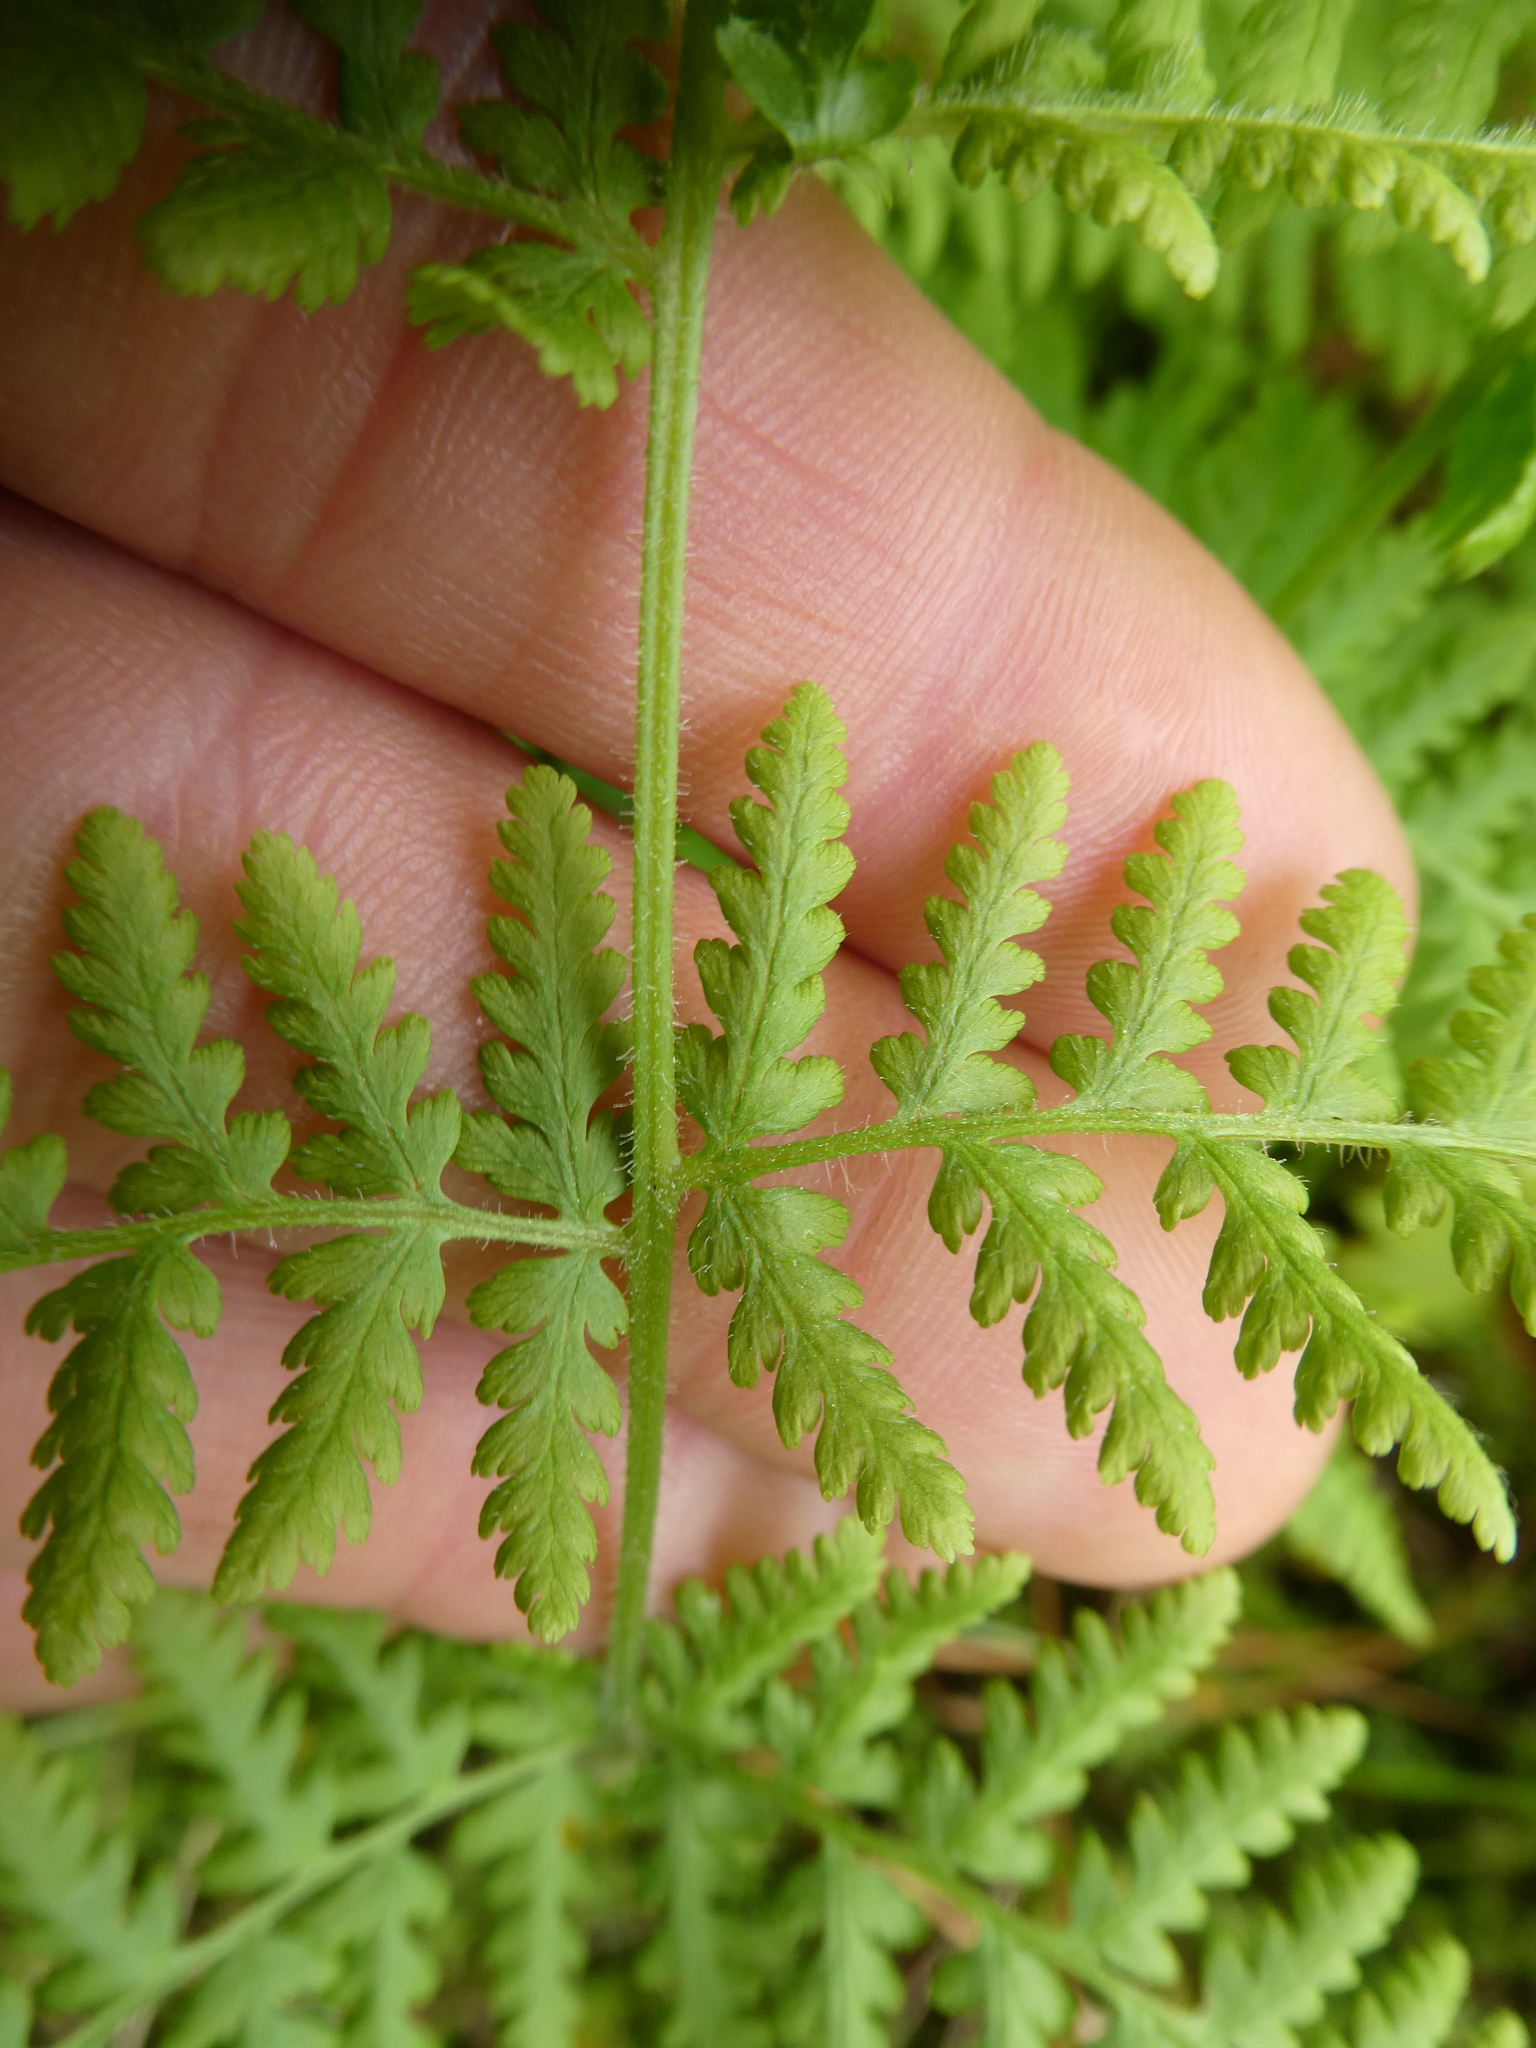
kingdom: Plantae
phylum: Tracheophyta
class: Polypodiopsida
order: Polypodiales
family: Dennstaedtiaceae
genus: Sitobolium
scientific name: Sitobolium punctilobum
